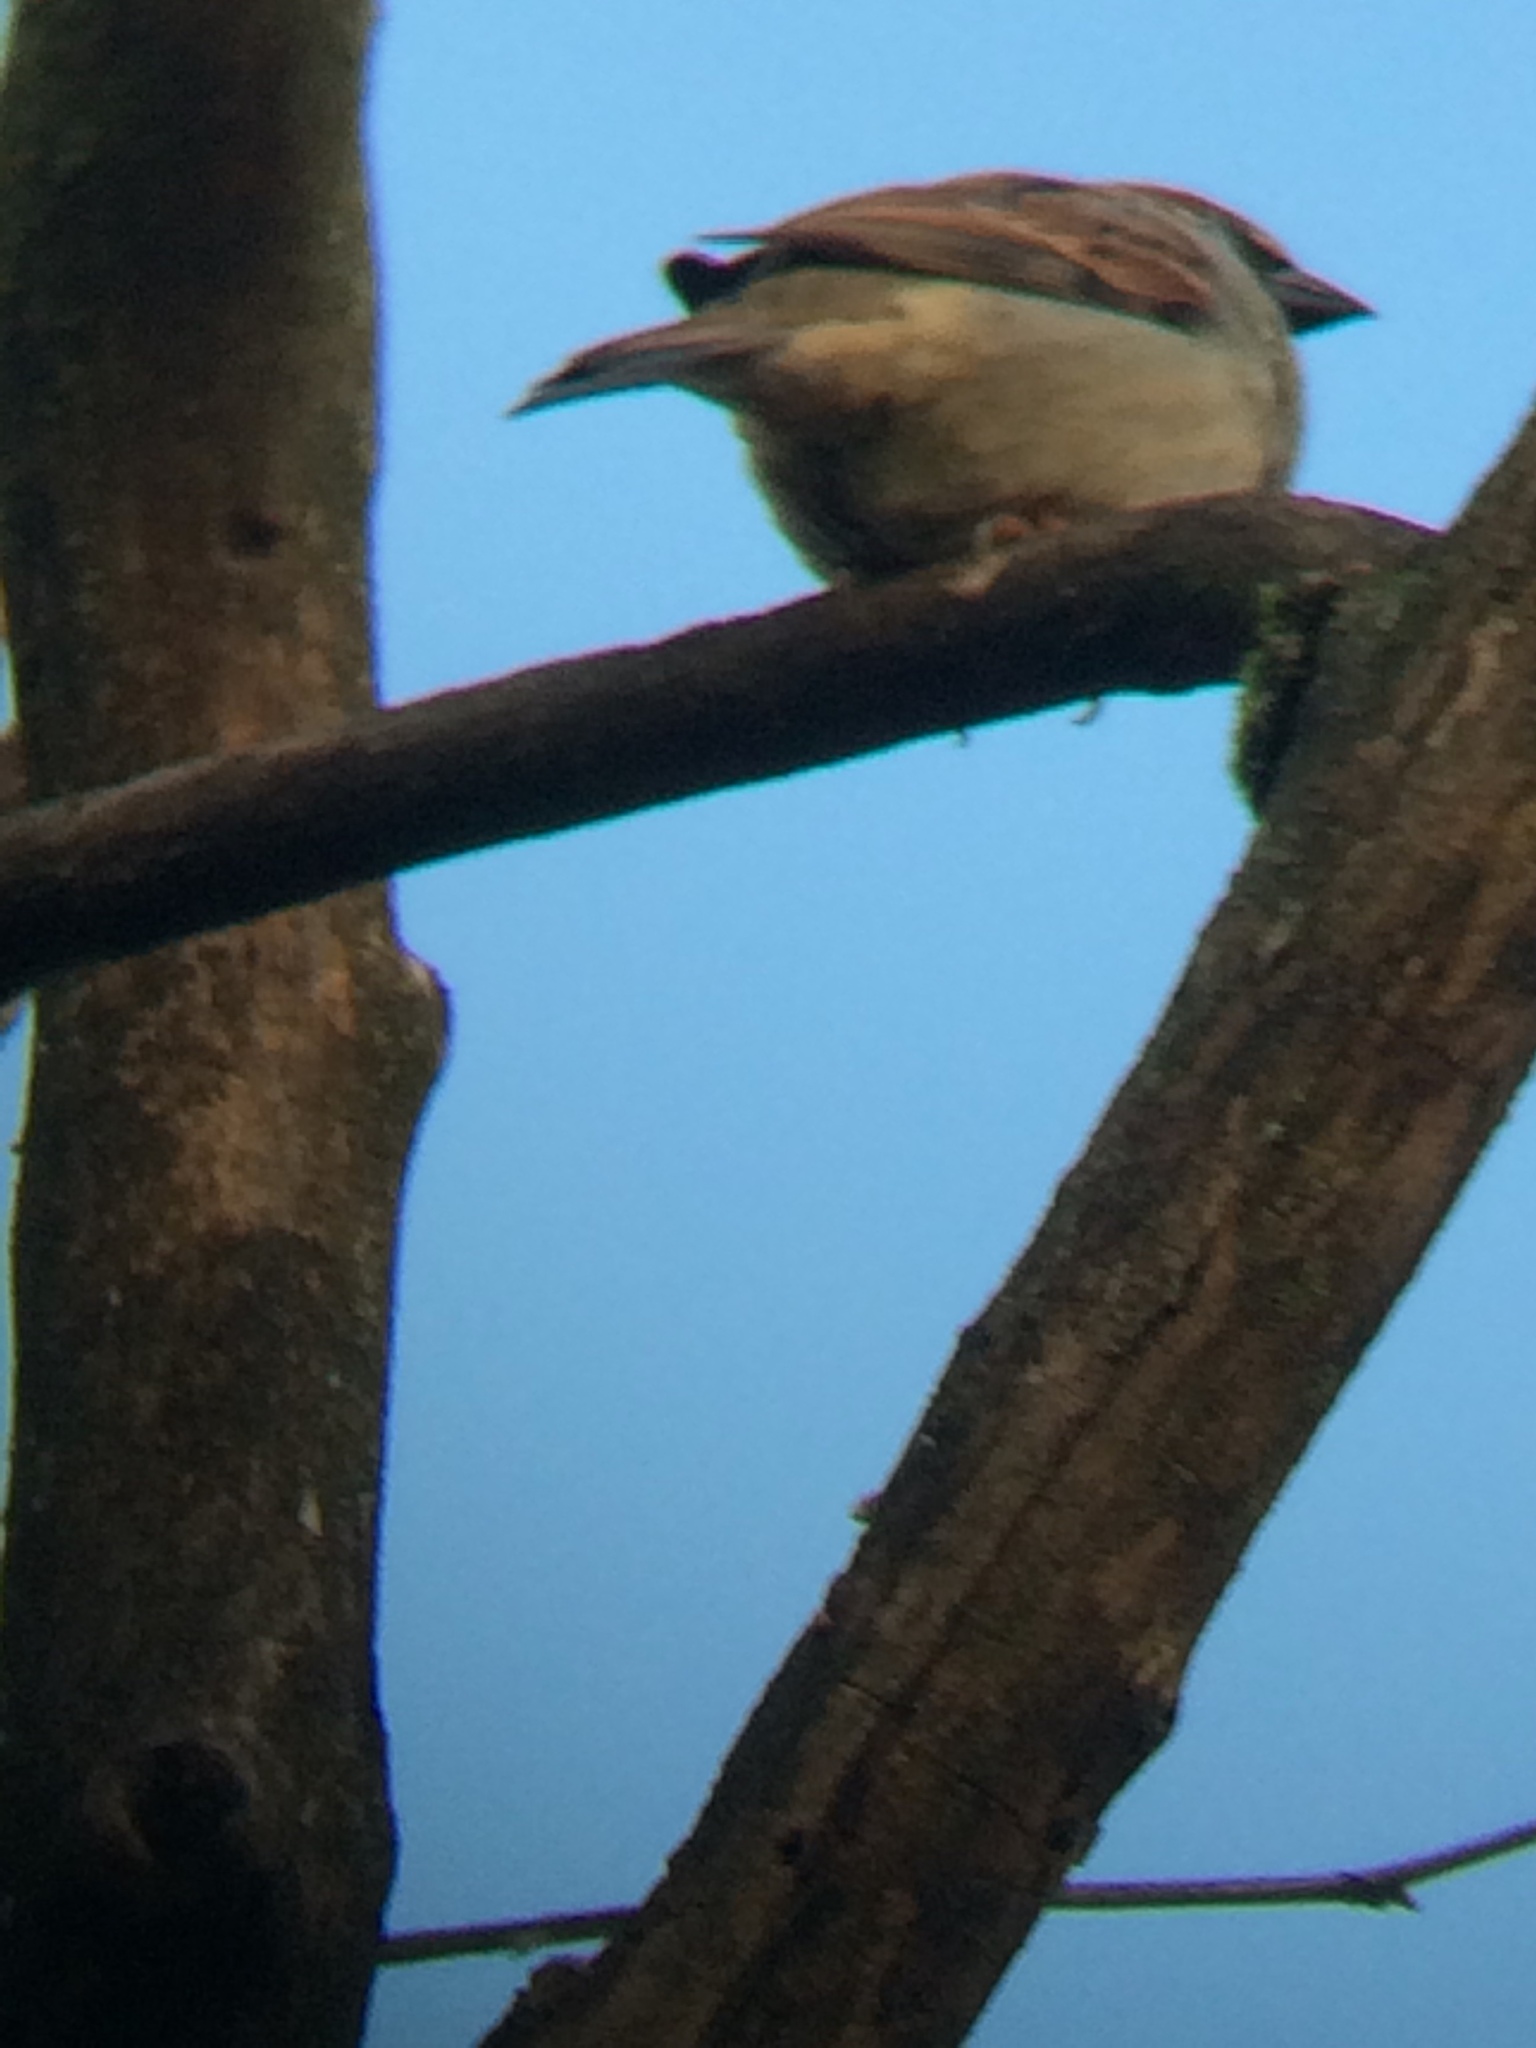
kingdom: Animalia
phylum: Chordata
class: Aves
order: Passeriformes
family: Passeridae
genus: Passer
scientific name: Passer domesticus
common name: House sparrow
